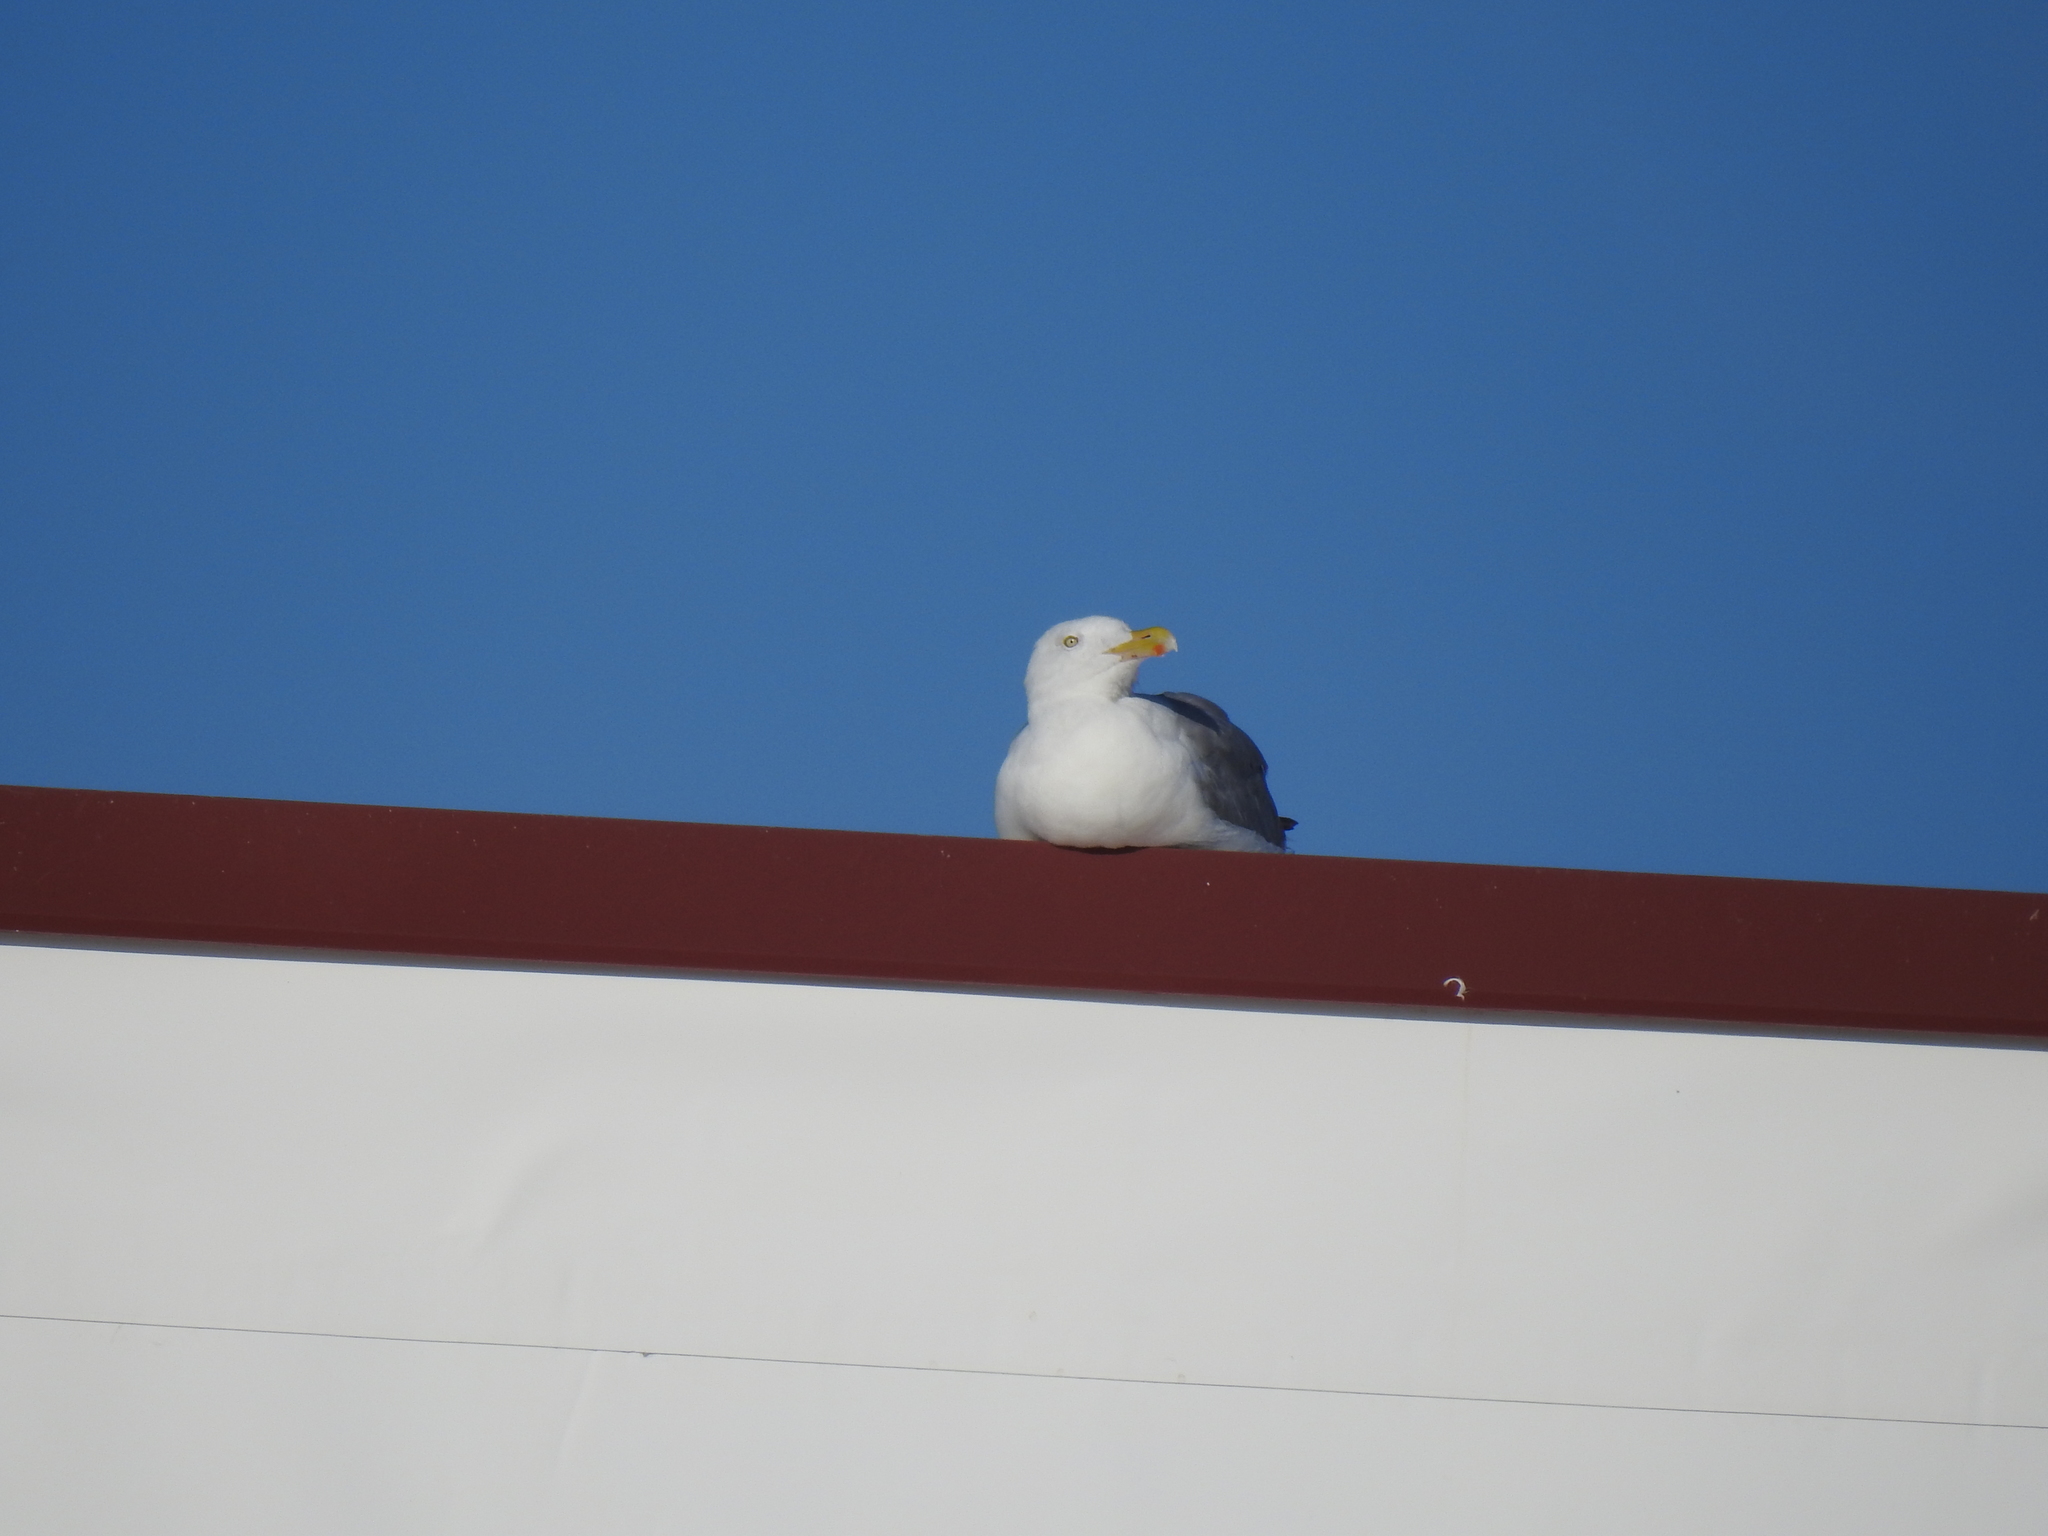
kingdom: Animalia
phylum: Chordata
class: Aves
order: Charadriiformes
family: Laridae
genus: Larus
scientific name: Larus argentatus
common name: Herring gull
